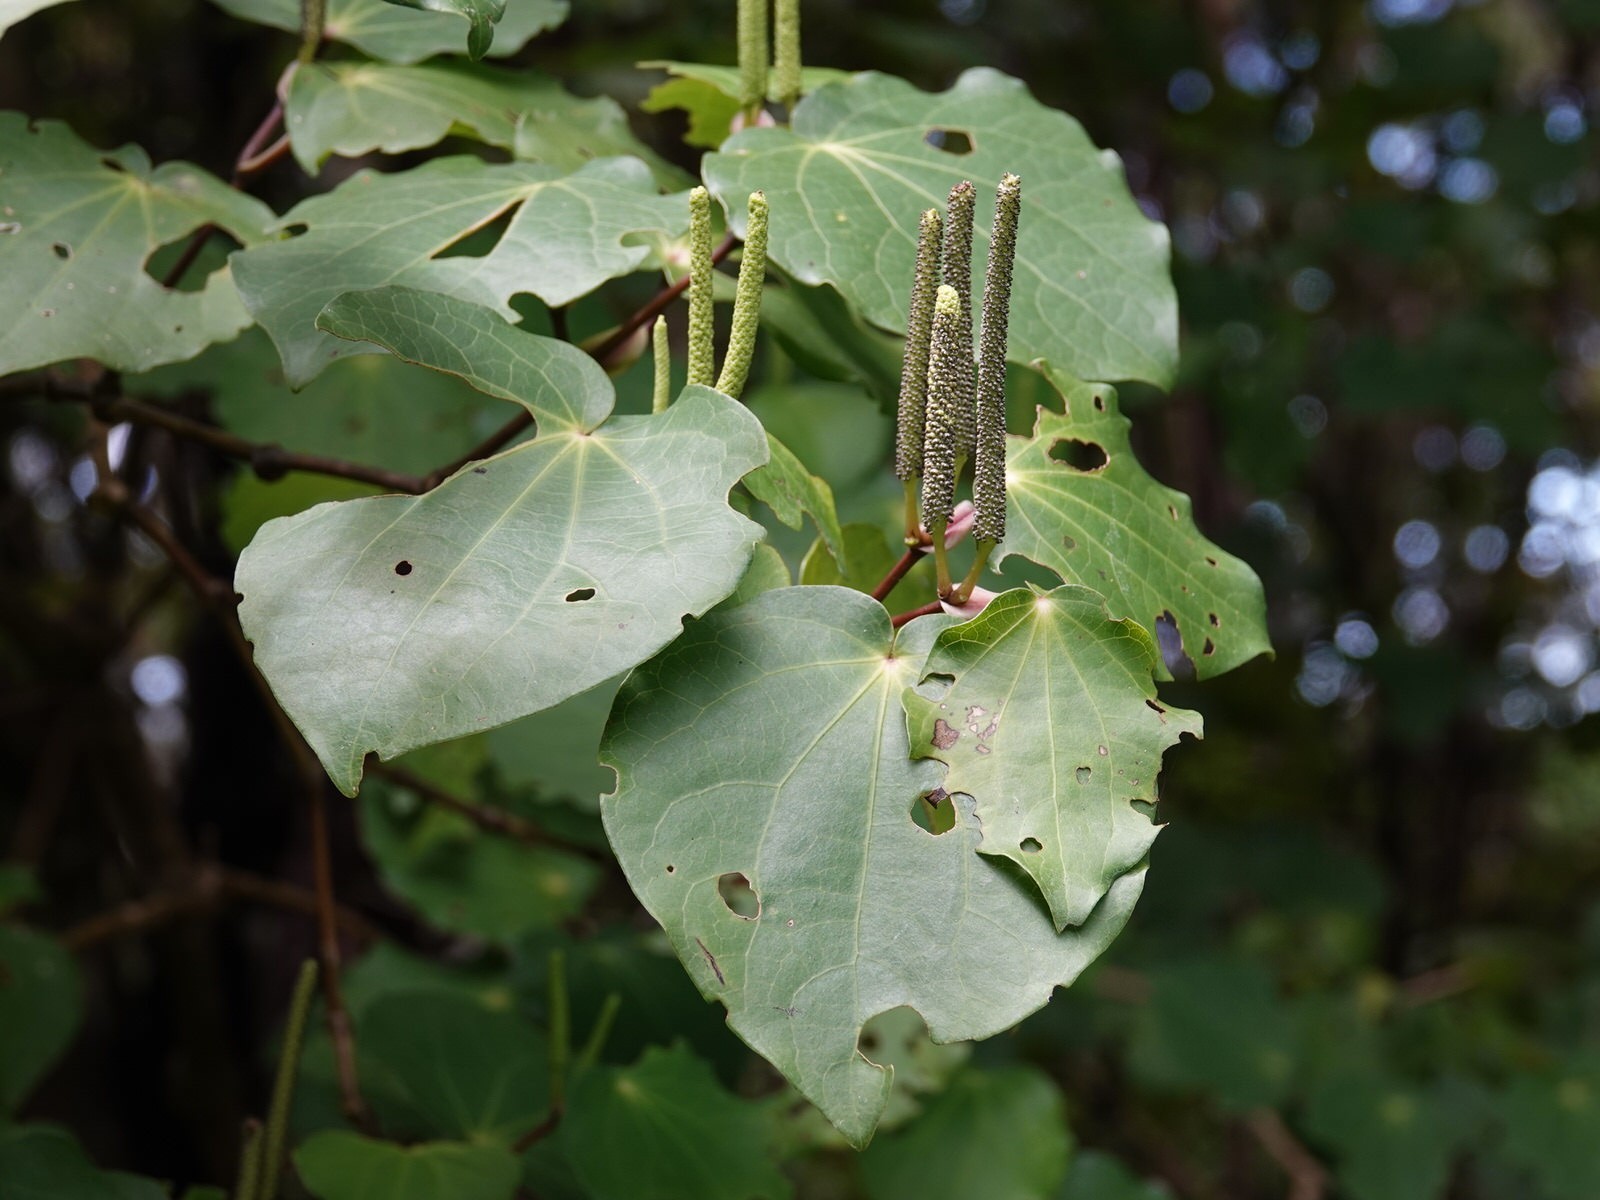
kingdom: Plantae
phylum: Tracheophyta
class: Magnoliopsida
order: Piperales
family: Piperaceae
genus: Macropiper
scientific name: Macropiper excelsum
